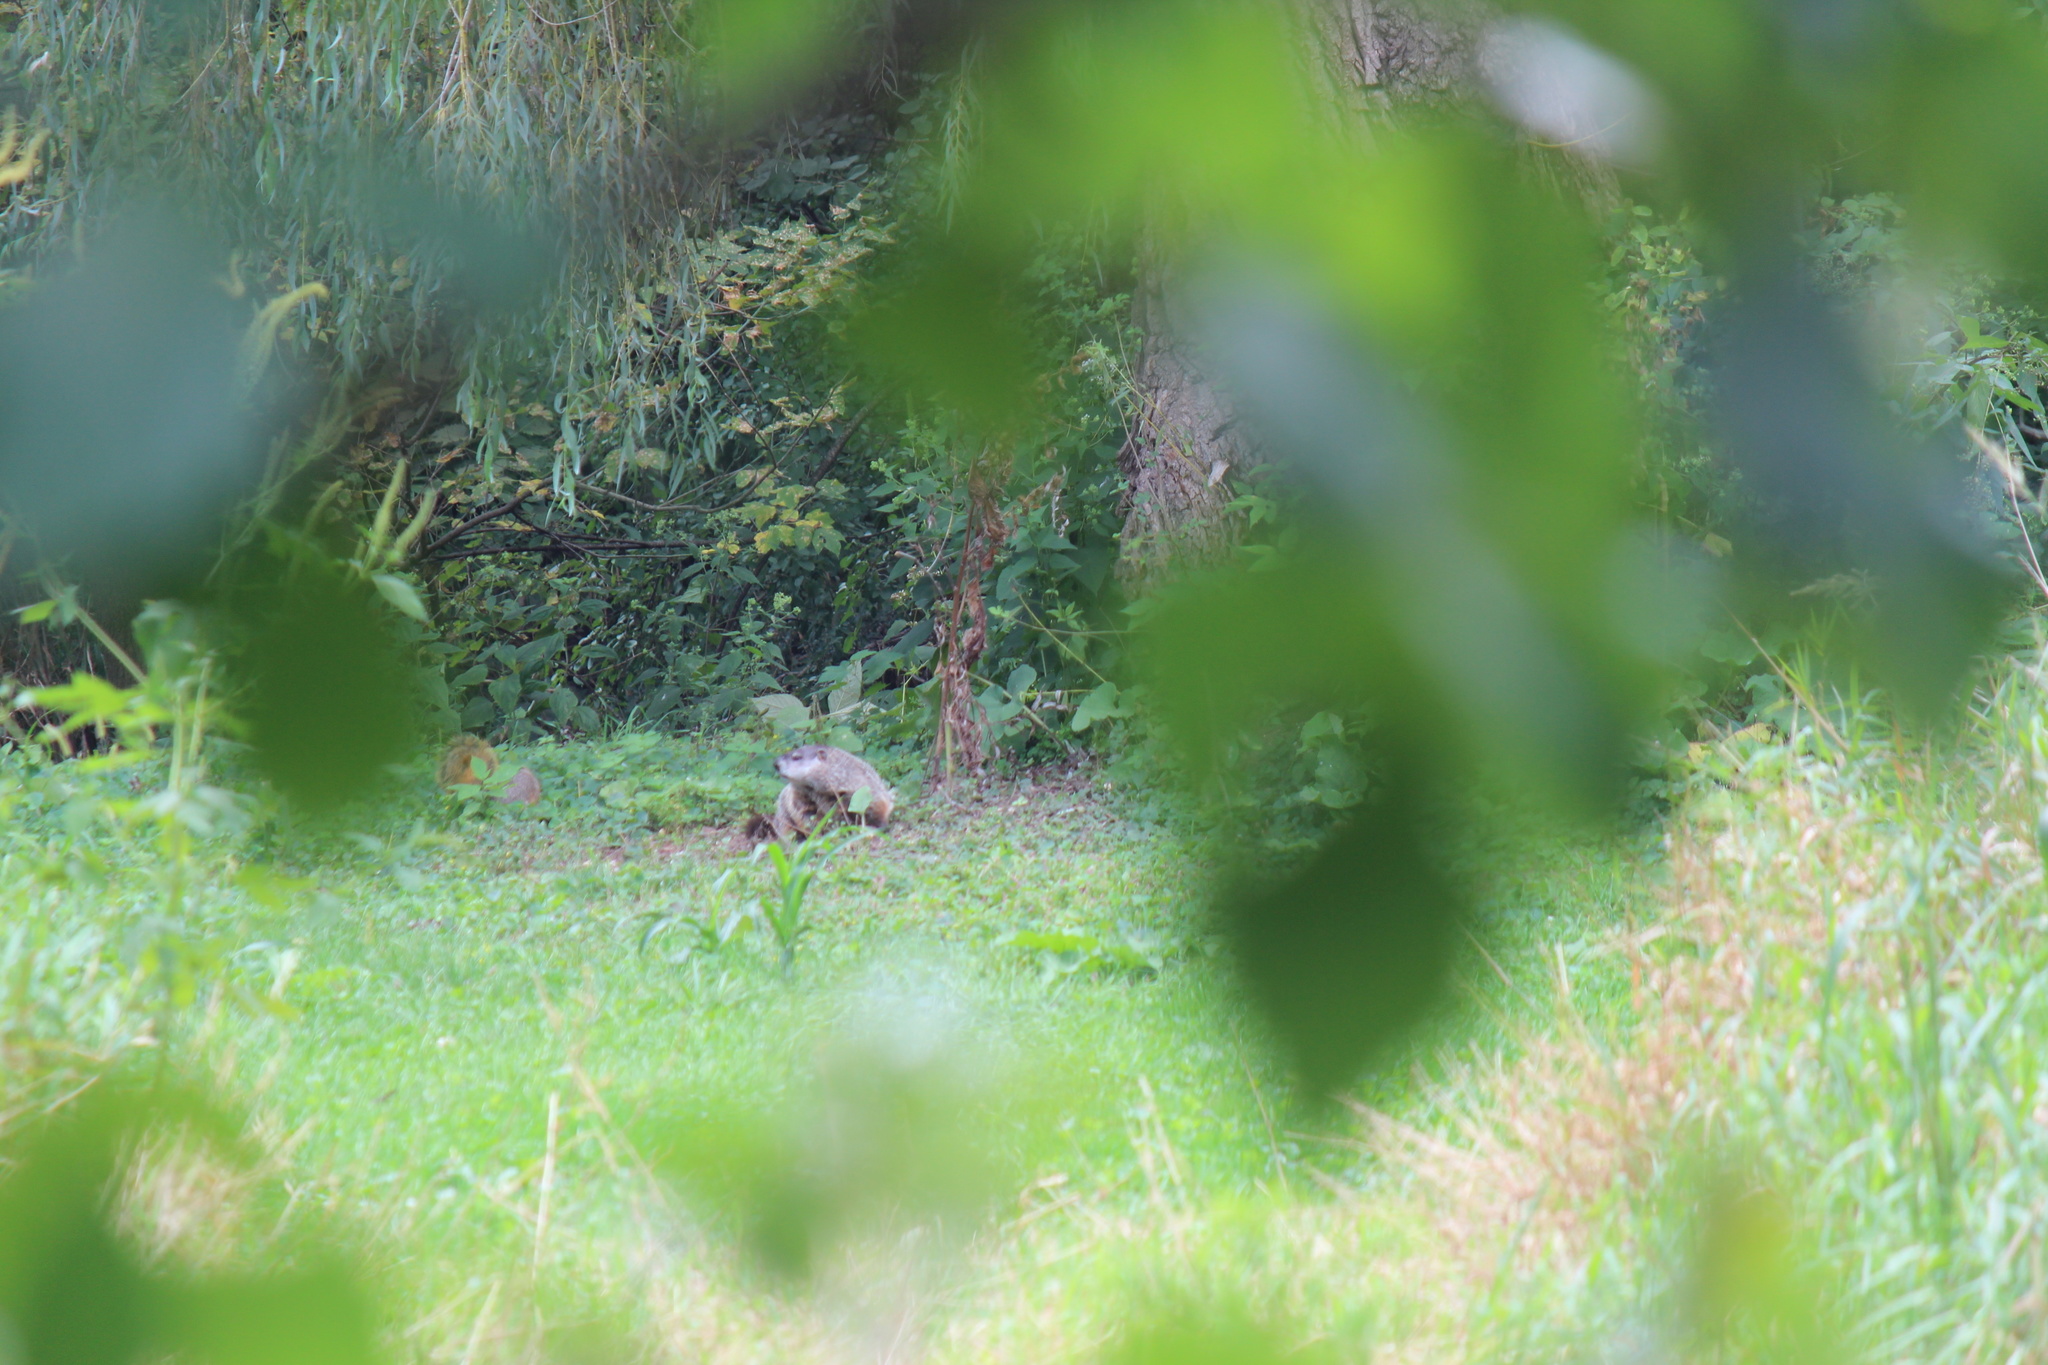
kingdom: Animalia
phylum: Chordata
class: Mammalia
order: Rodentia
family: Sciuridae
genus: Marmota
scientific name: Marmota monax
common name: Groundhog
